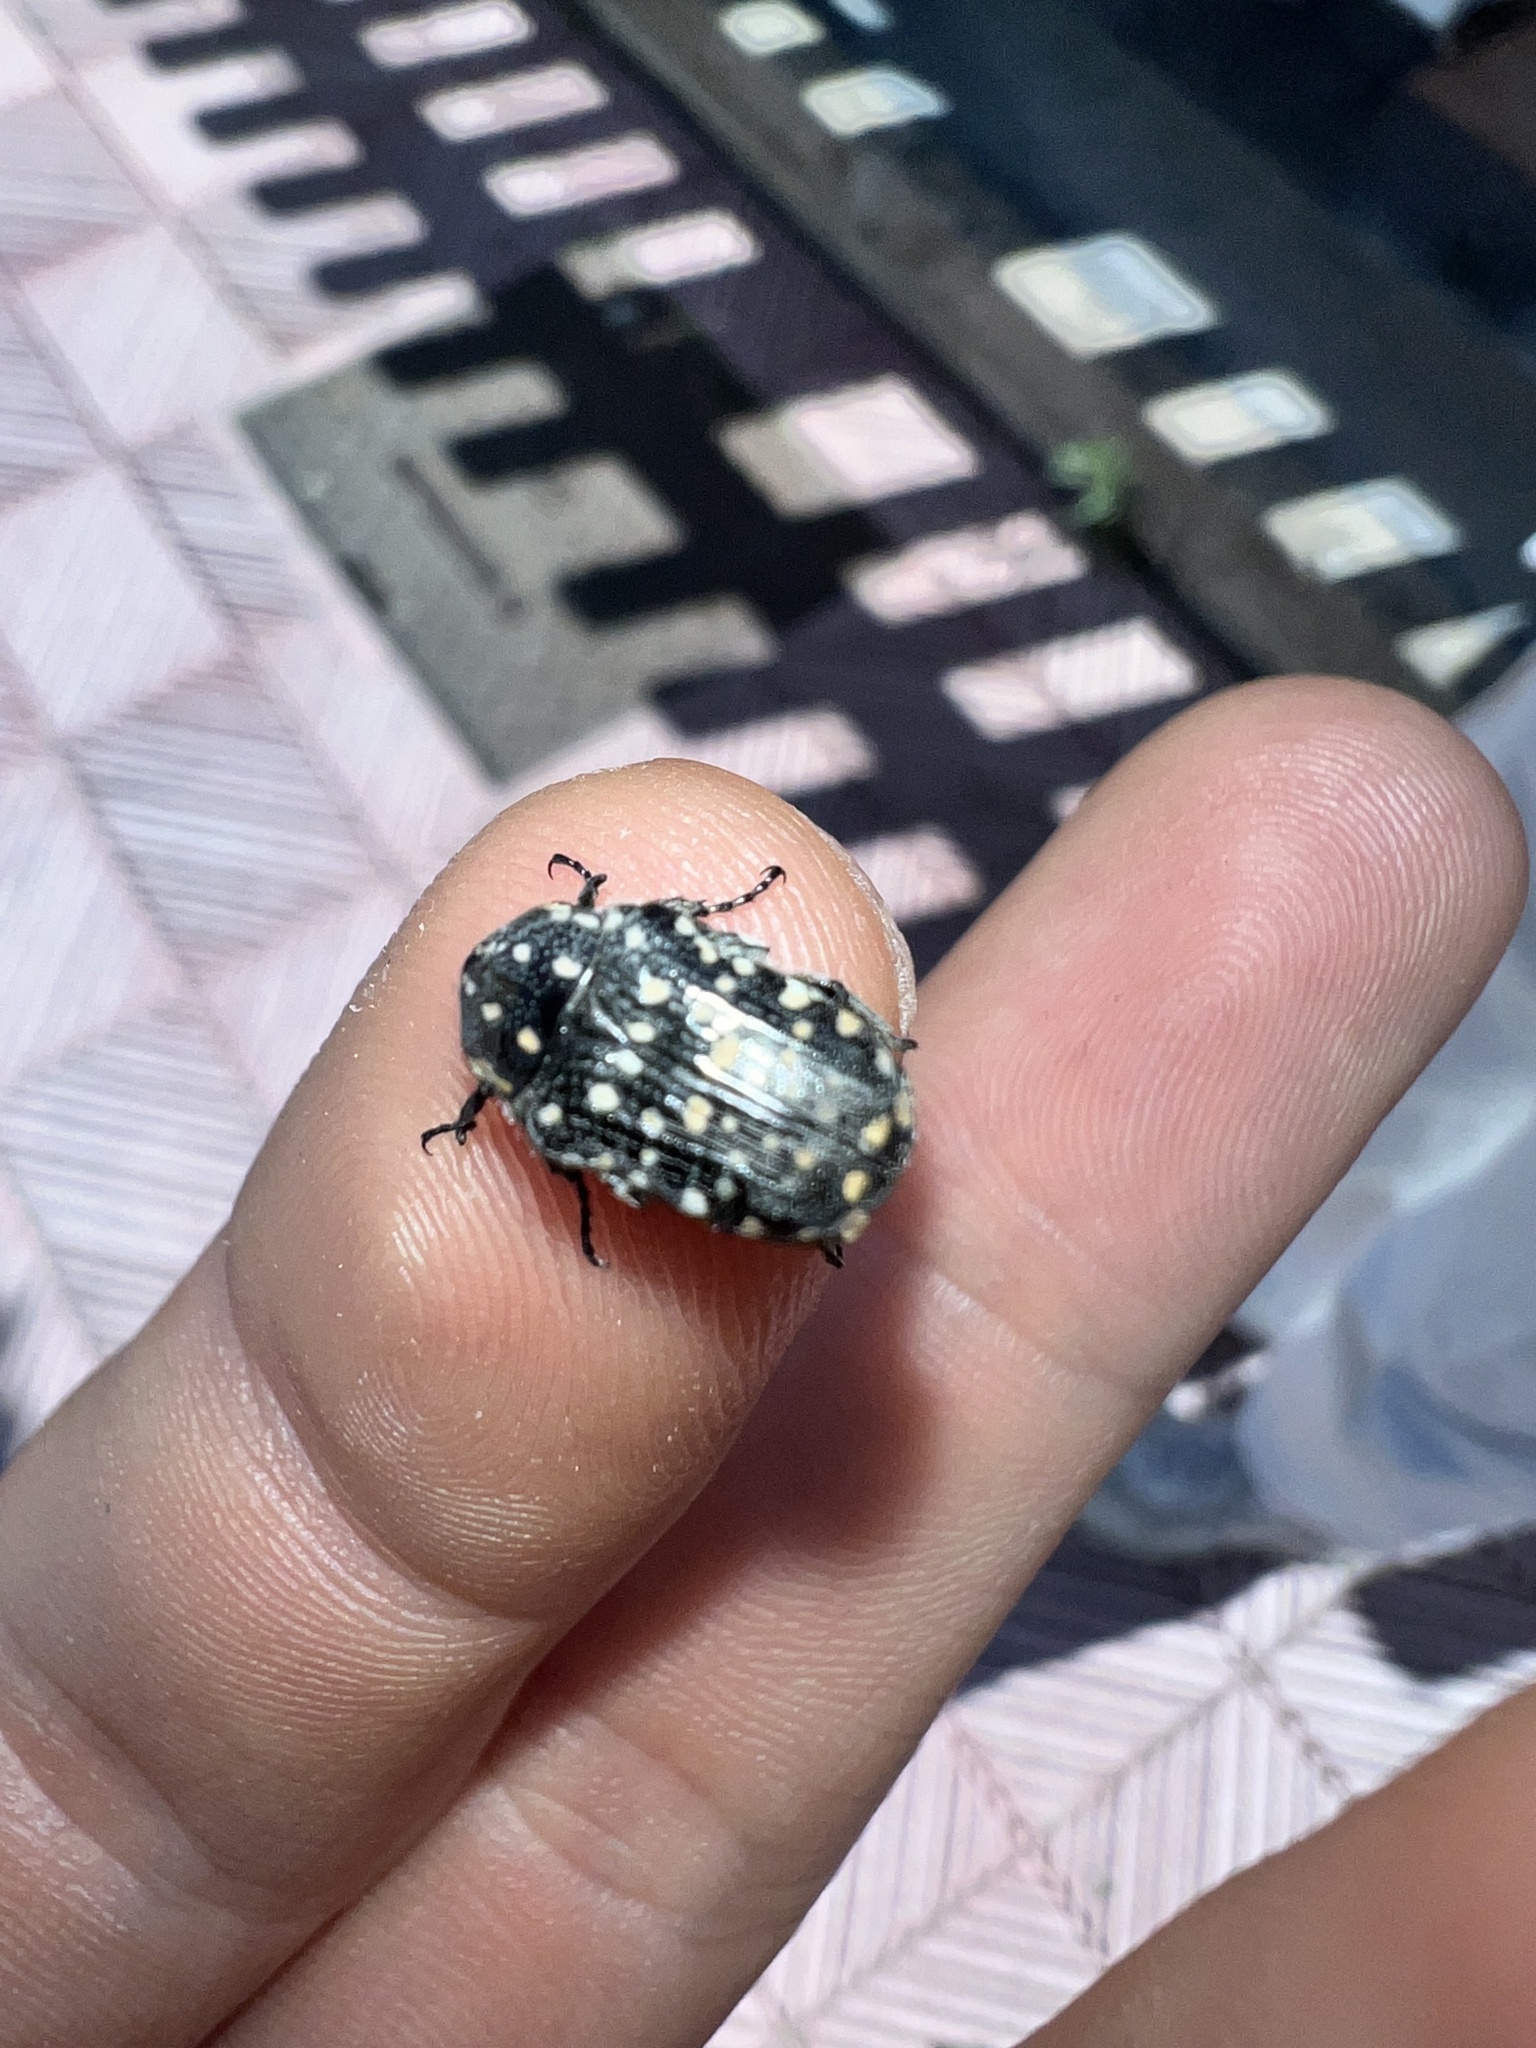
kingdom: Animalia
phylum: Arthropoda
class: Insecta
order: Coleoptera
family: Scarabaeidae
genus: Oxythyrea
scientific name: Oxythyrea funesta
